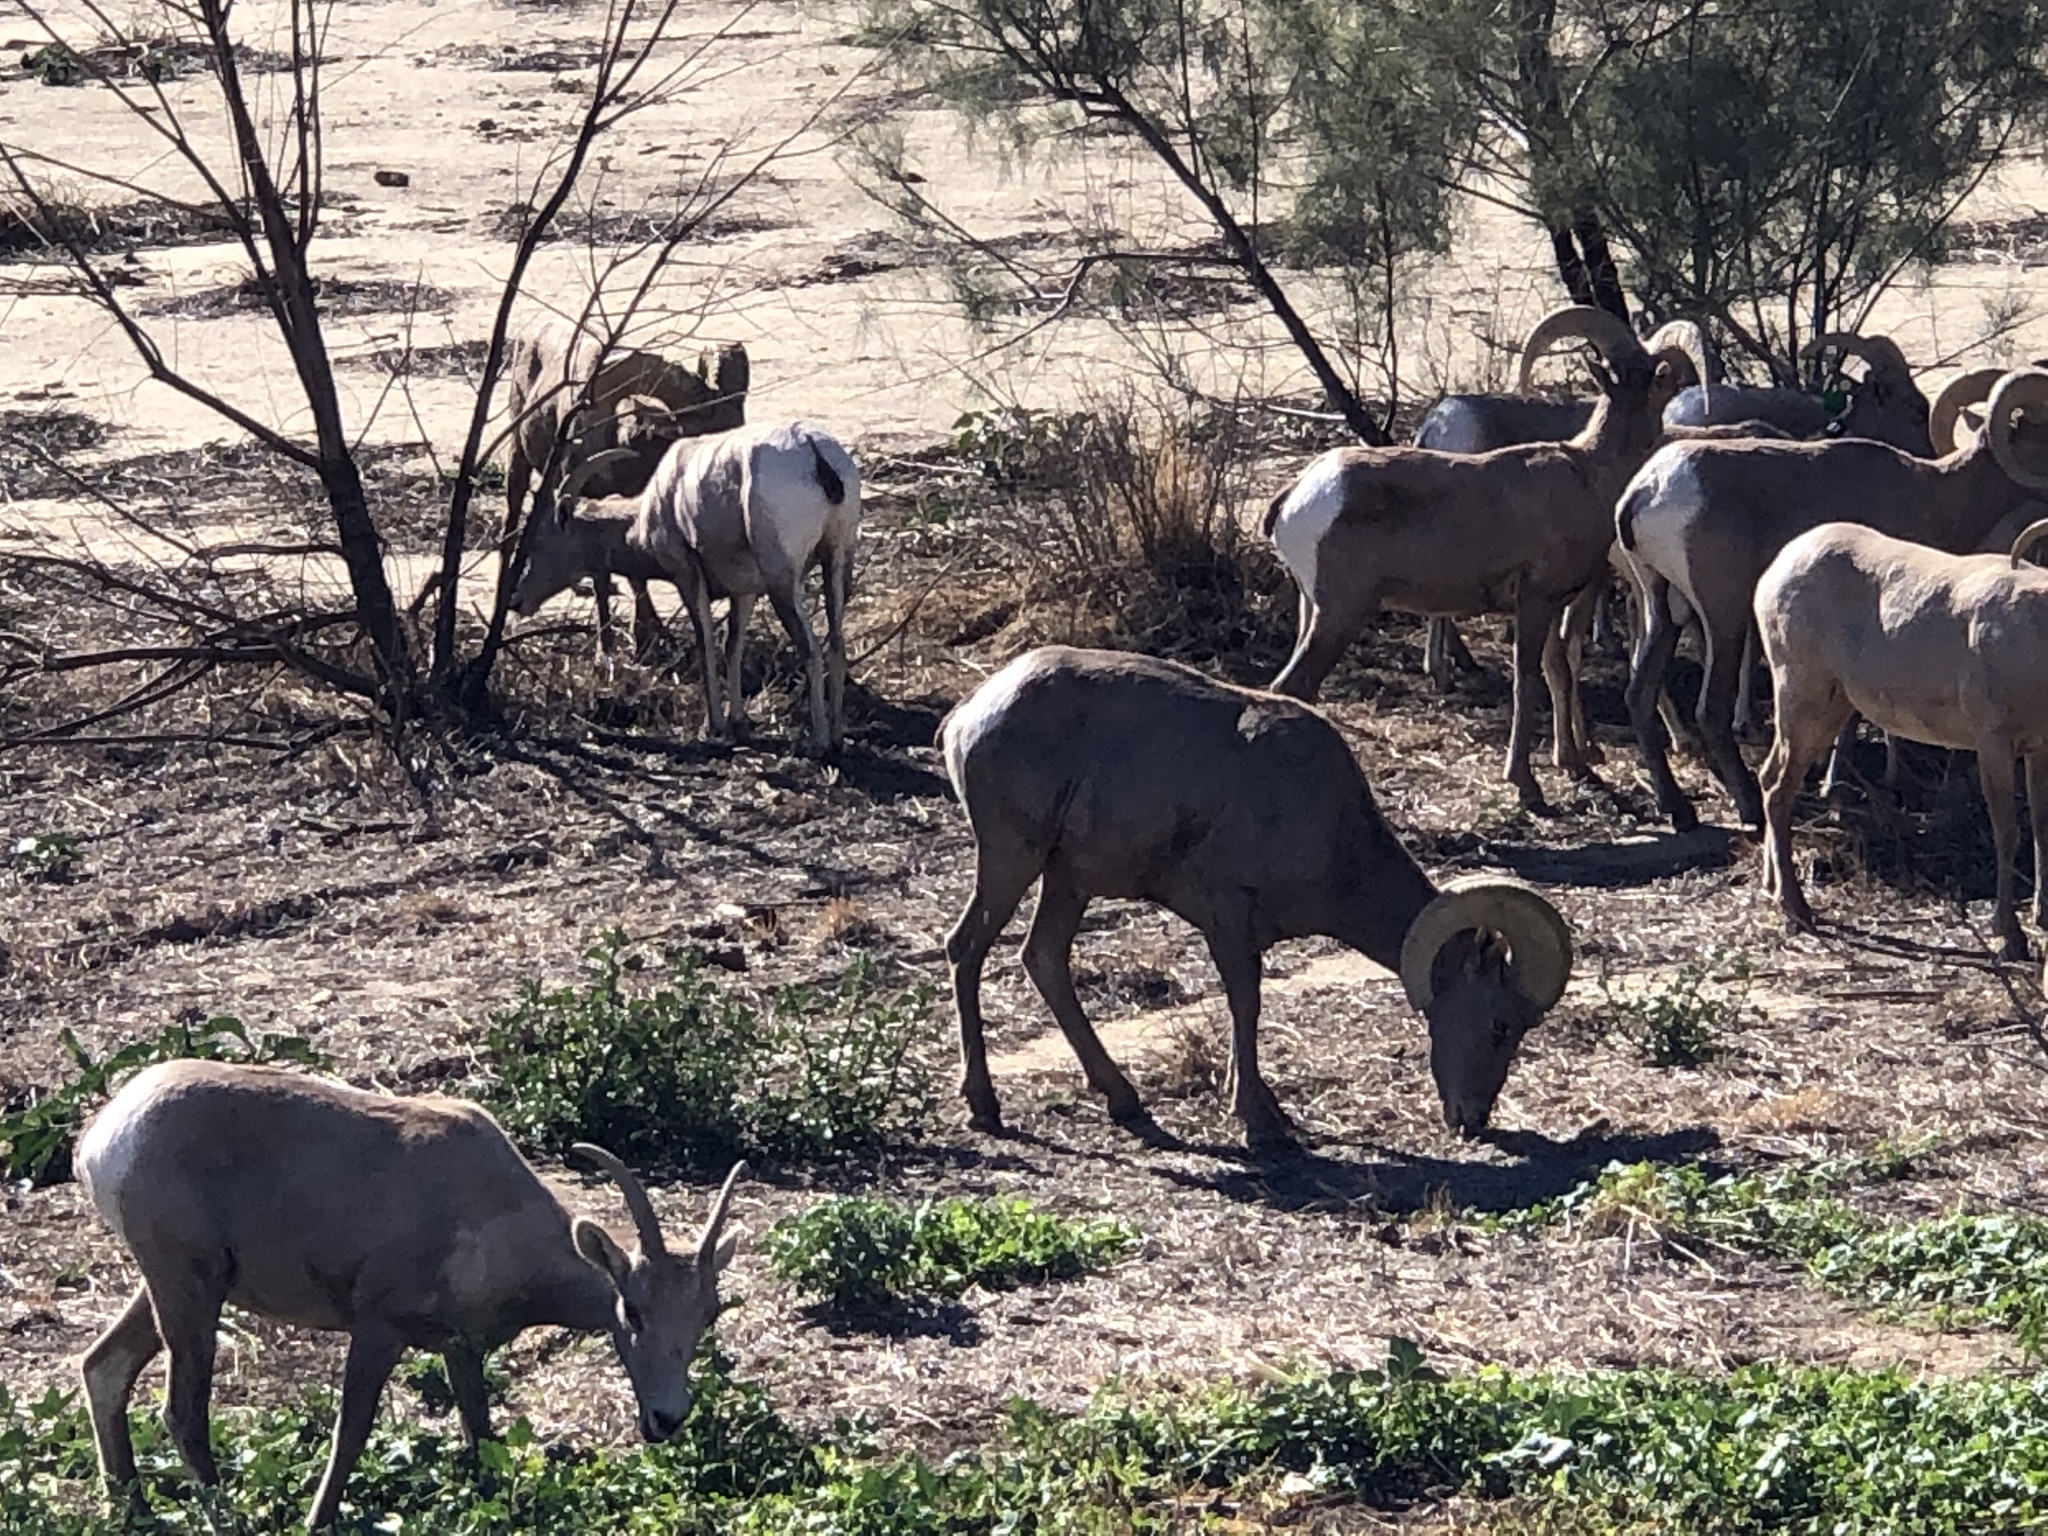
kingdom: Animalia
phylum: Chordata
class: Mammalia
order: Artiodactyla
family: Bovidae
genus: Ovis
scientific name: Ovis canadensis
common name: Bighorn sheep
